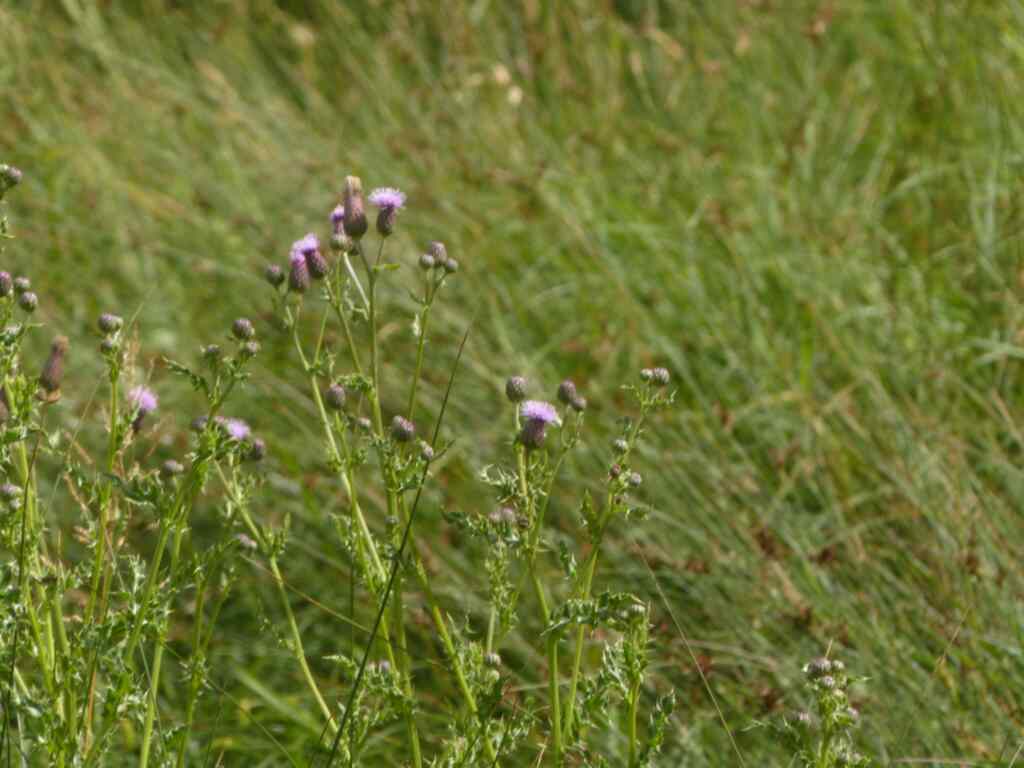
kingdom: Plantae
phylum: Tracheophyta
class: Magnoliopsida
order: Asterales
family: Asteraceae
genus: Cirsium
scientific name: Cirsium arvense
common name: Creeping thistle
